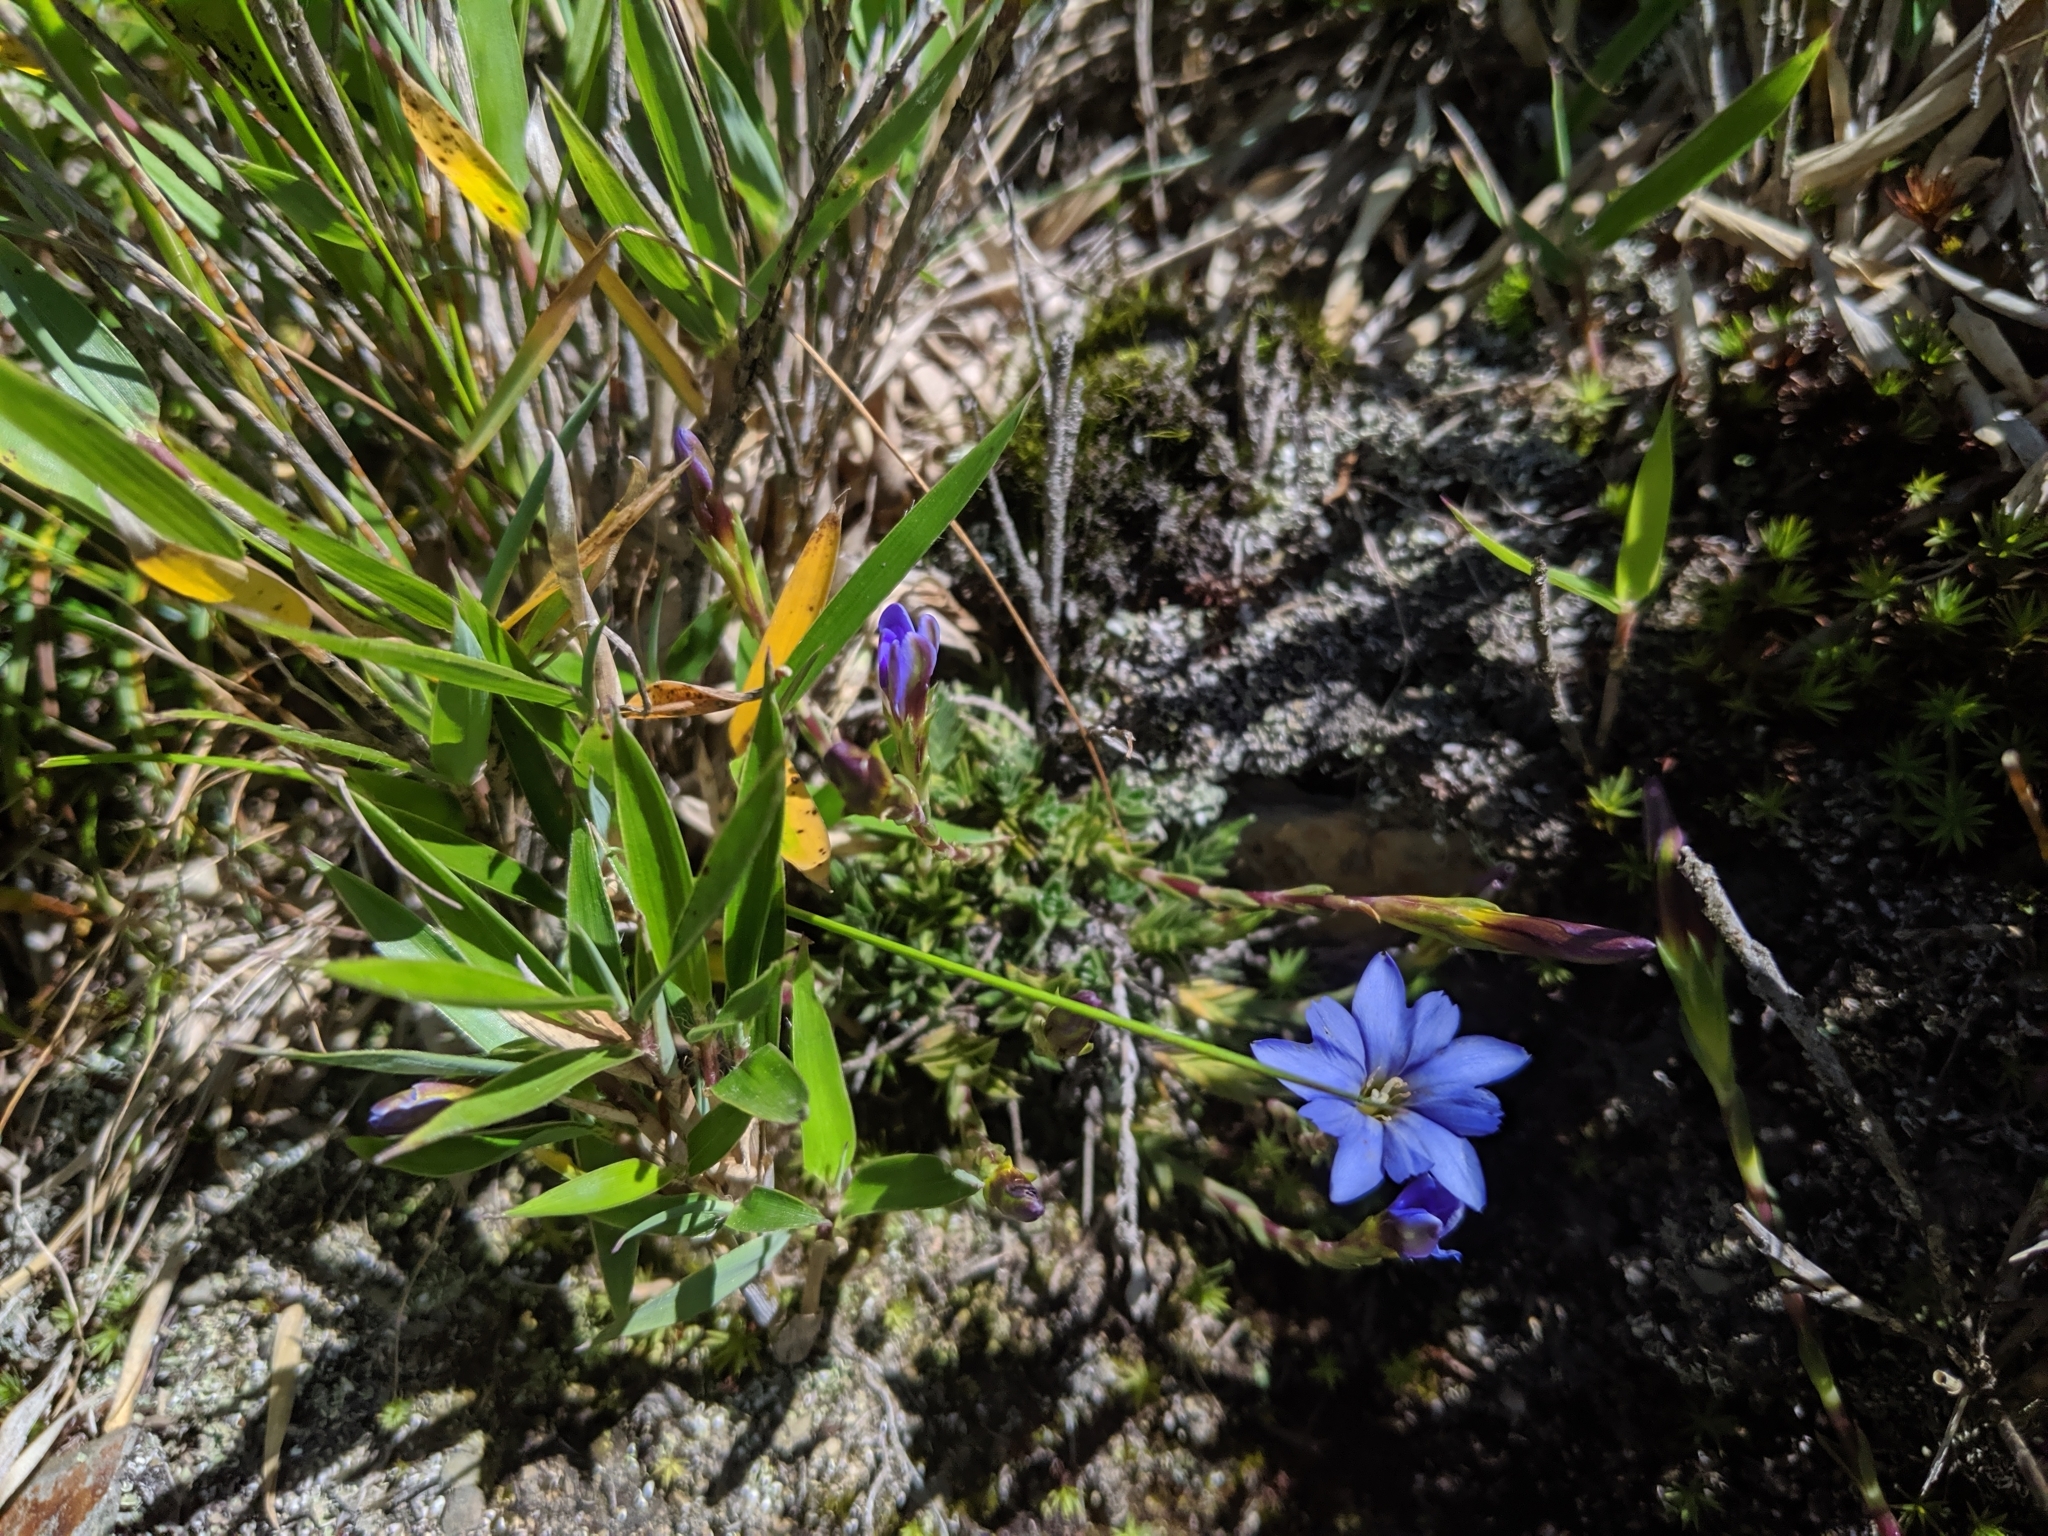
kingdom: Plantae
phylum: Tracheophyta
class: Magnoliopsida
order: Gentianales
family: Gentianaceae
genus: Gentiana
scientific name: Gentiana arisanensis
